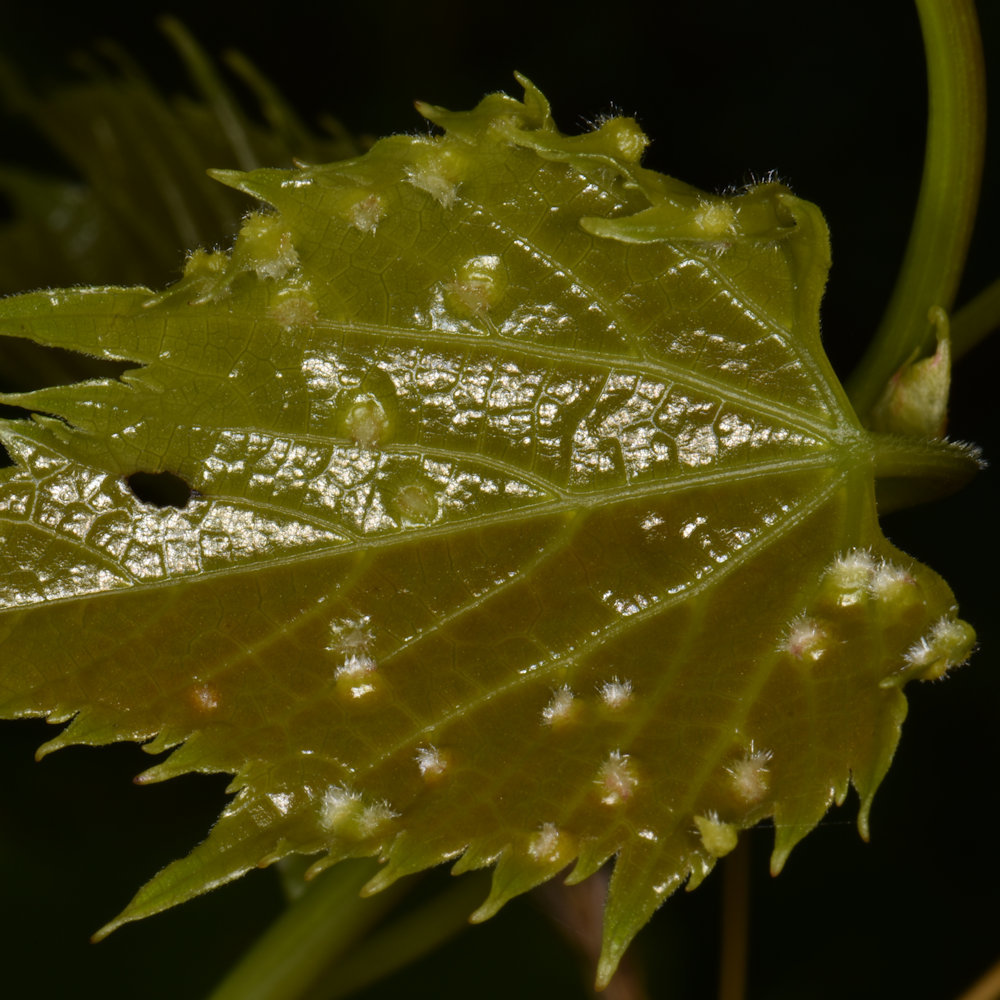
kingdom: Animalia
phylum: Arthropoda
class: Insecta
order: Hemiptera
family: Phylloxeridae
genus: Daktulosphaira
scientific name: Daktulosphaira vitifoliae
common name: Grape phylloxera
